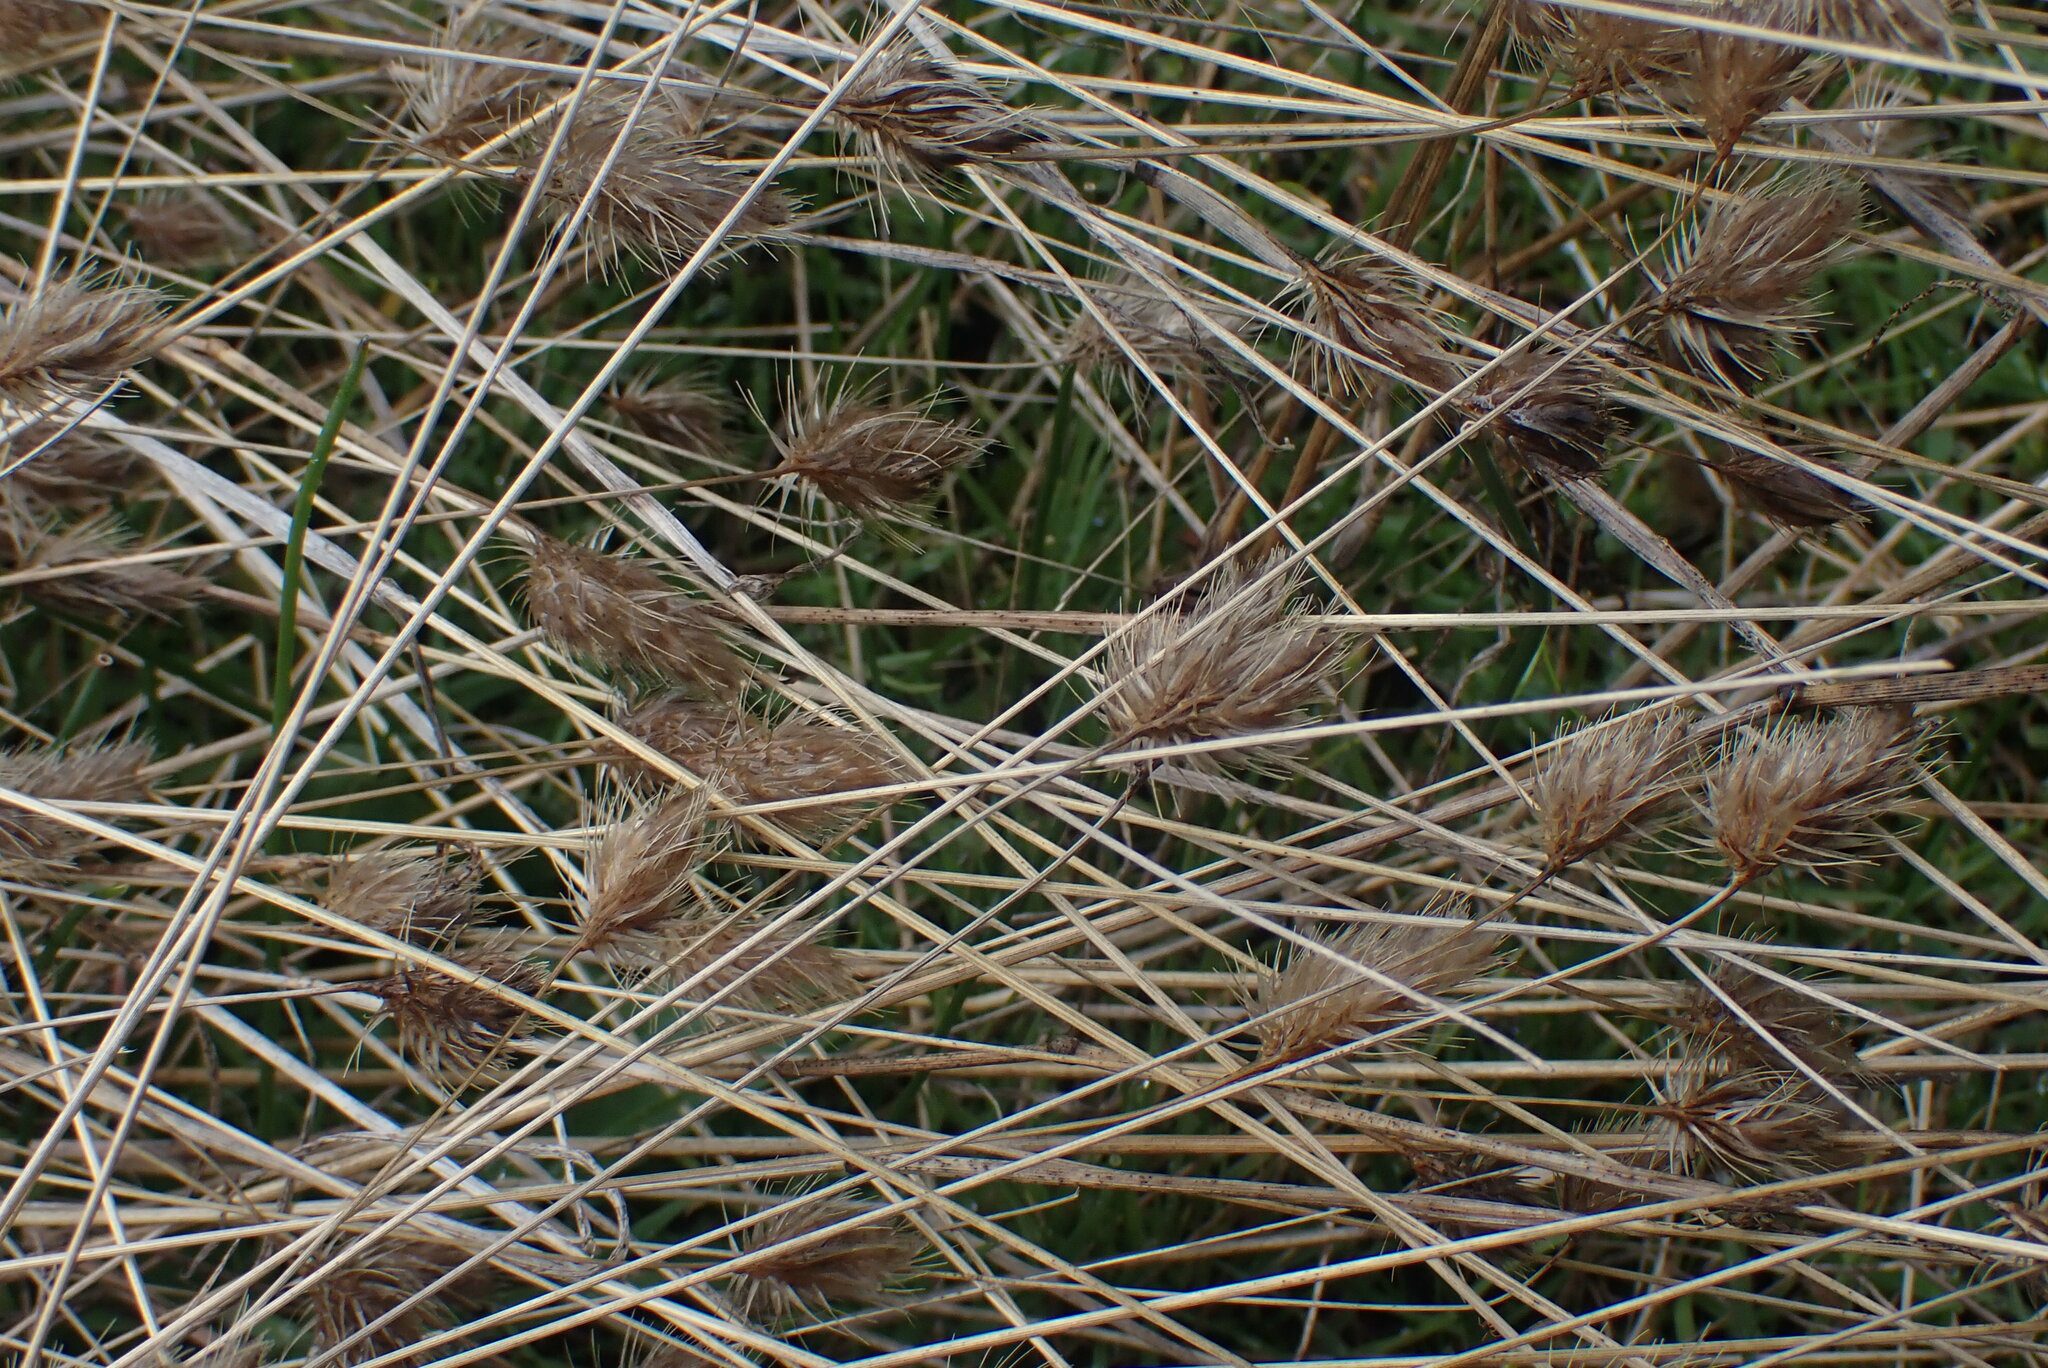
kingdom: Plantae
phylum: Tracheophyta
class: Liliopsida
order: Poales
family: Poaceae
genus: Cynosurus
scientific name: Cynosurus echinatus
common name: Rough dog's-tail
